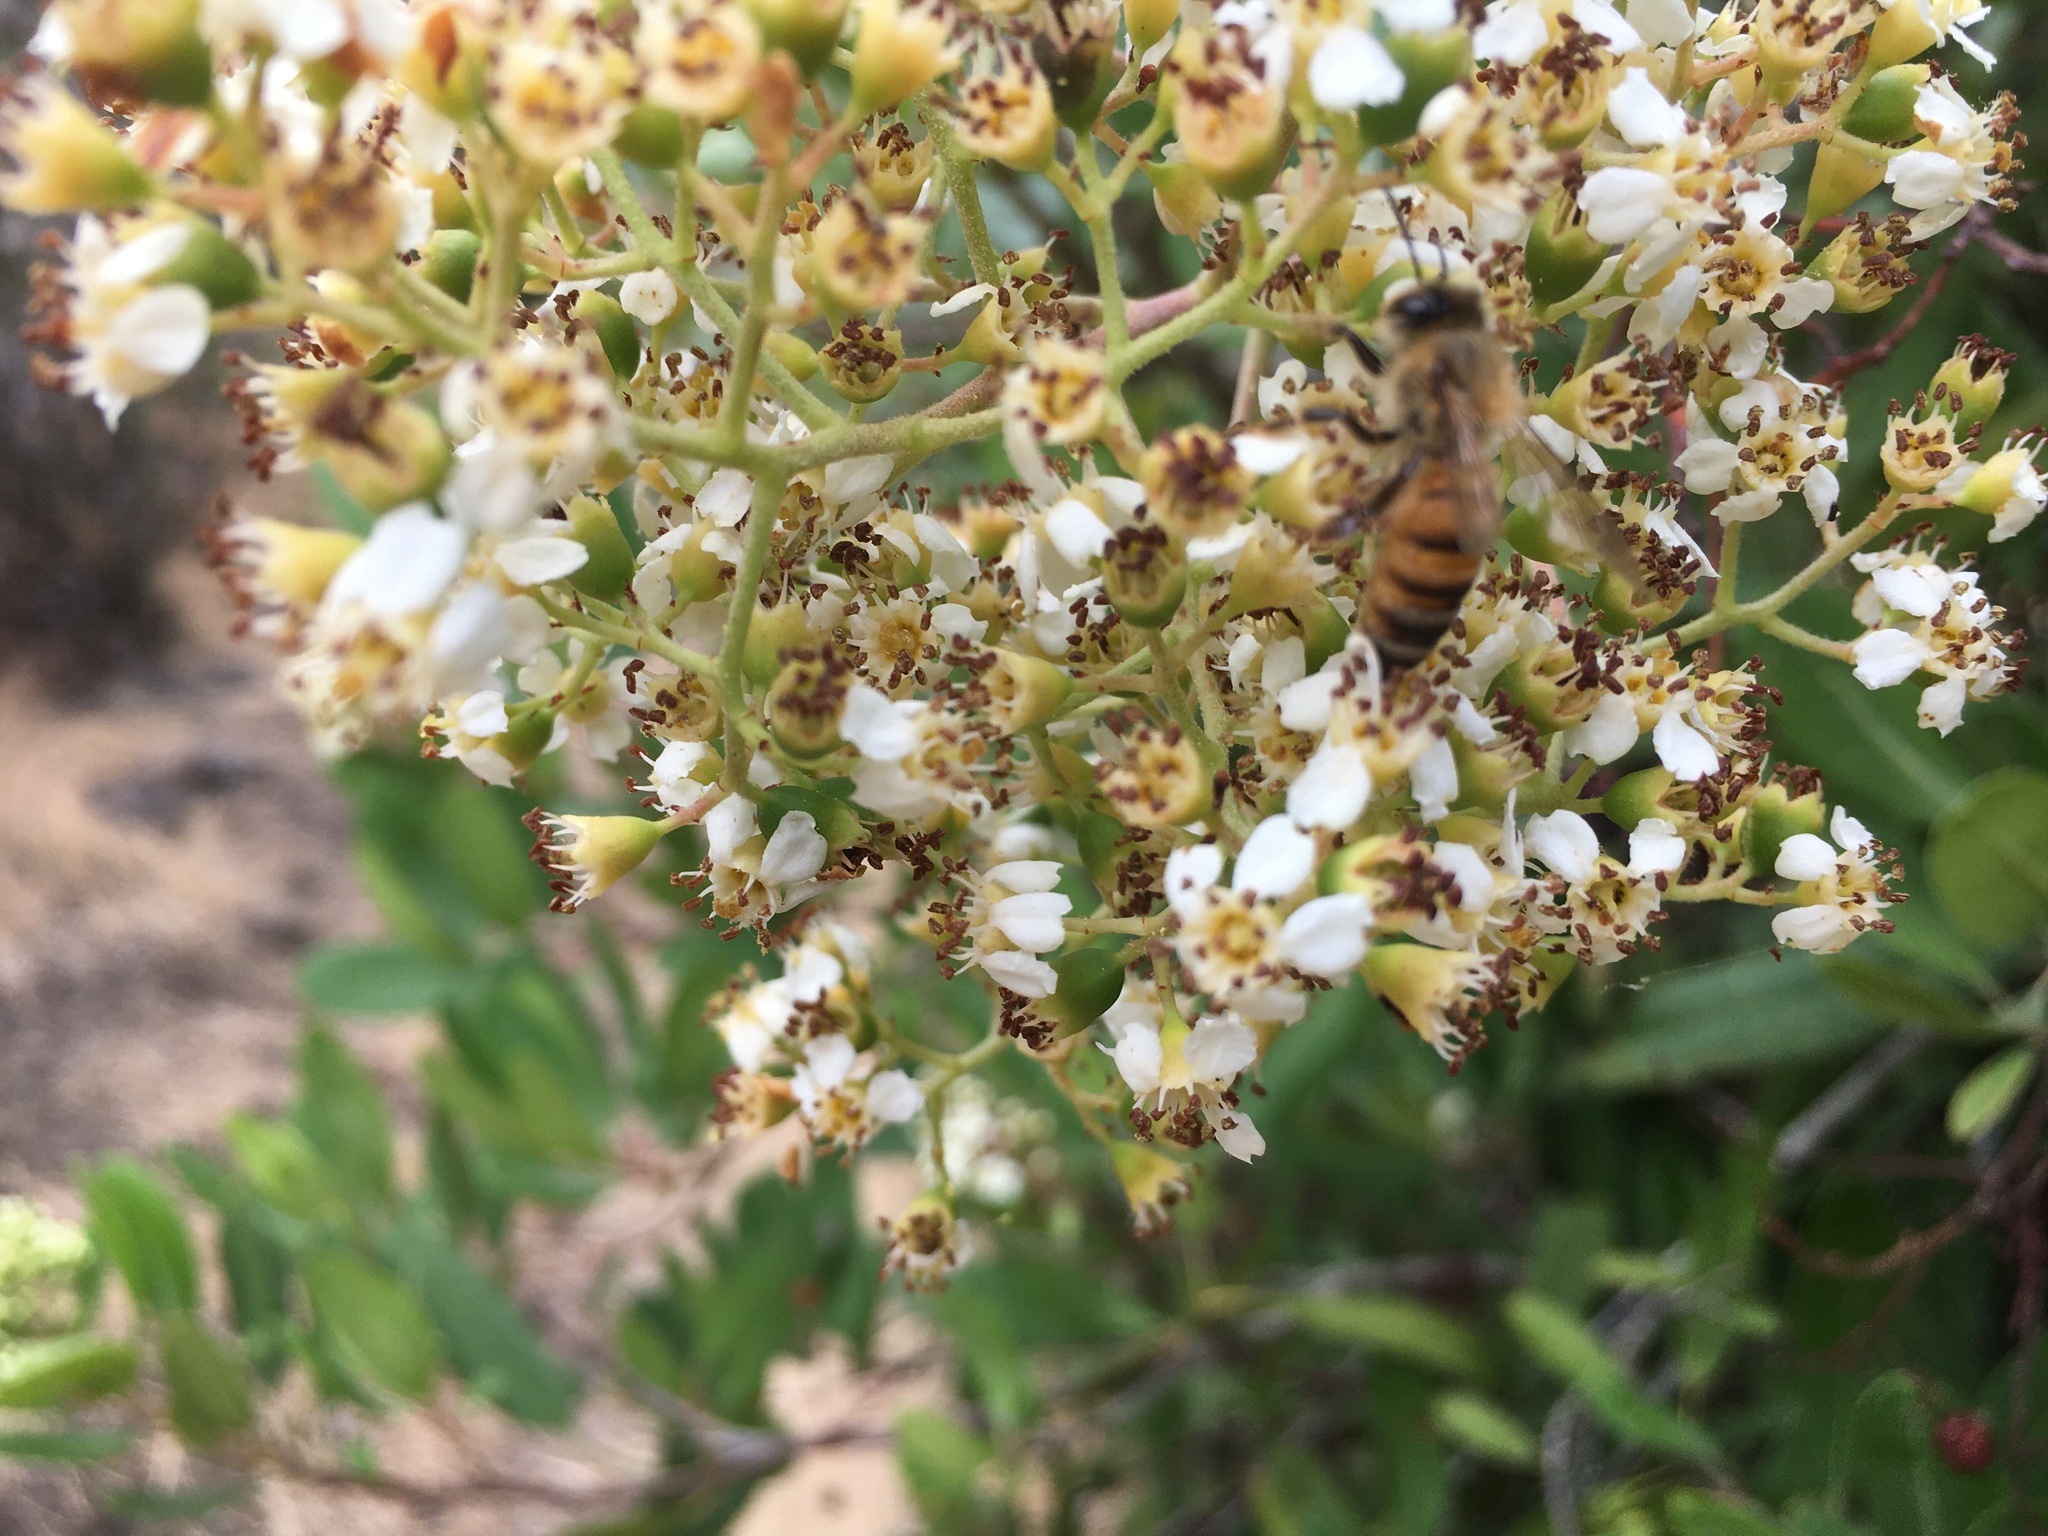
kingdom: Animalia
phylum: Arthropoda
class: Insecta
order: Hymenoptera
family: Apidae
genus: Apis
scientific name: Apis mellifera
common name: Honey bee
